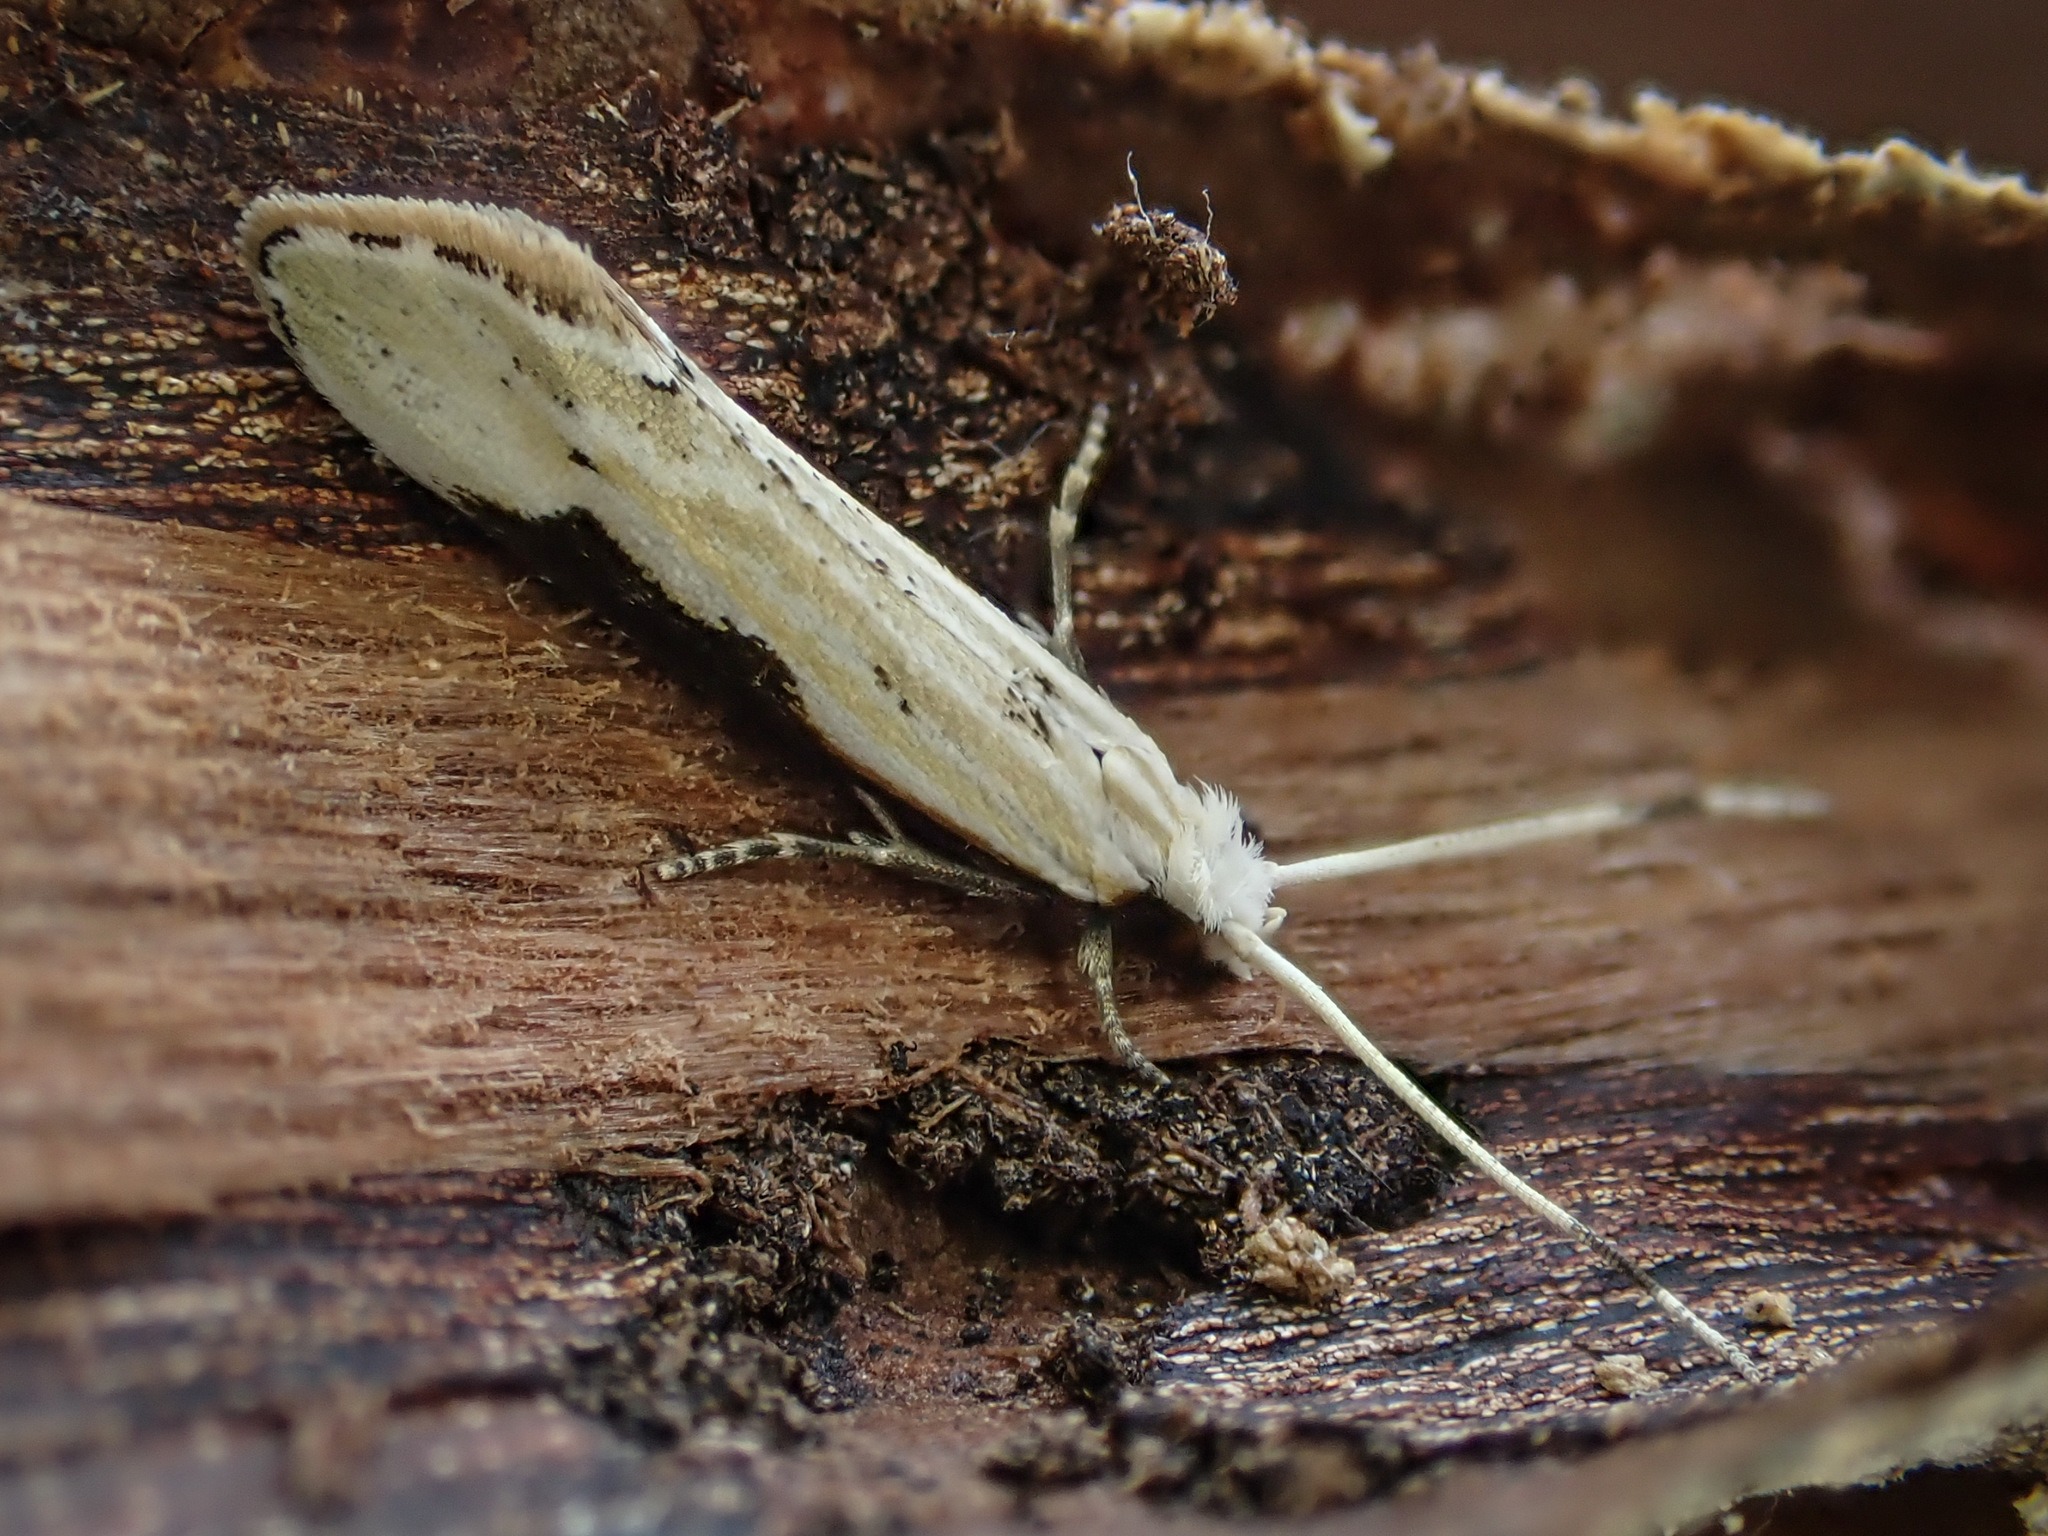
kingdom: Animalia
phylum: Arthropoda
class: Insecta
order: Lepidoptera
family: Tineidae
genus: Sagephora
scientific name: Sagephora phortegella
